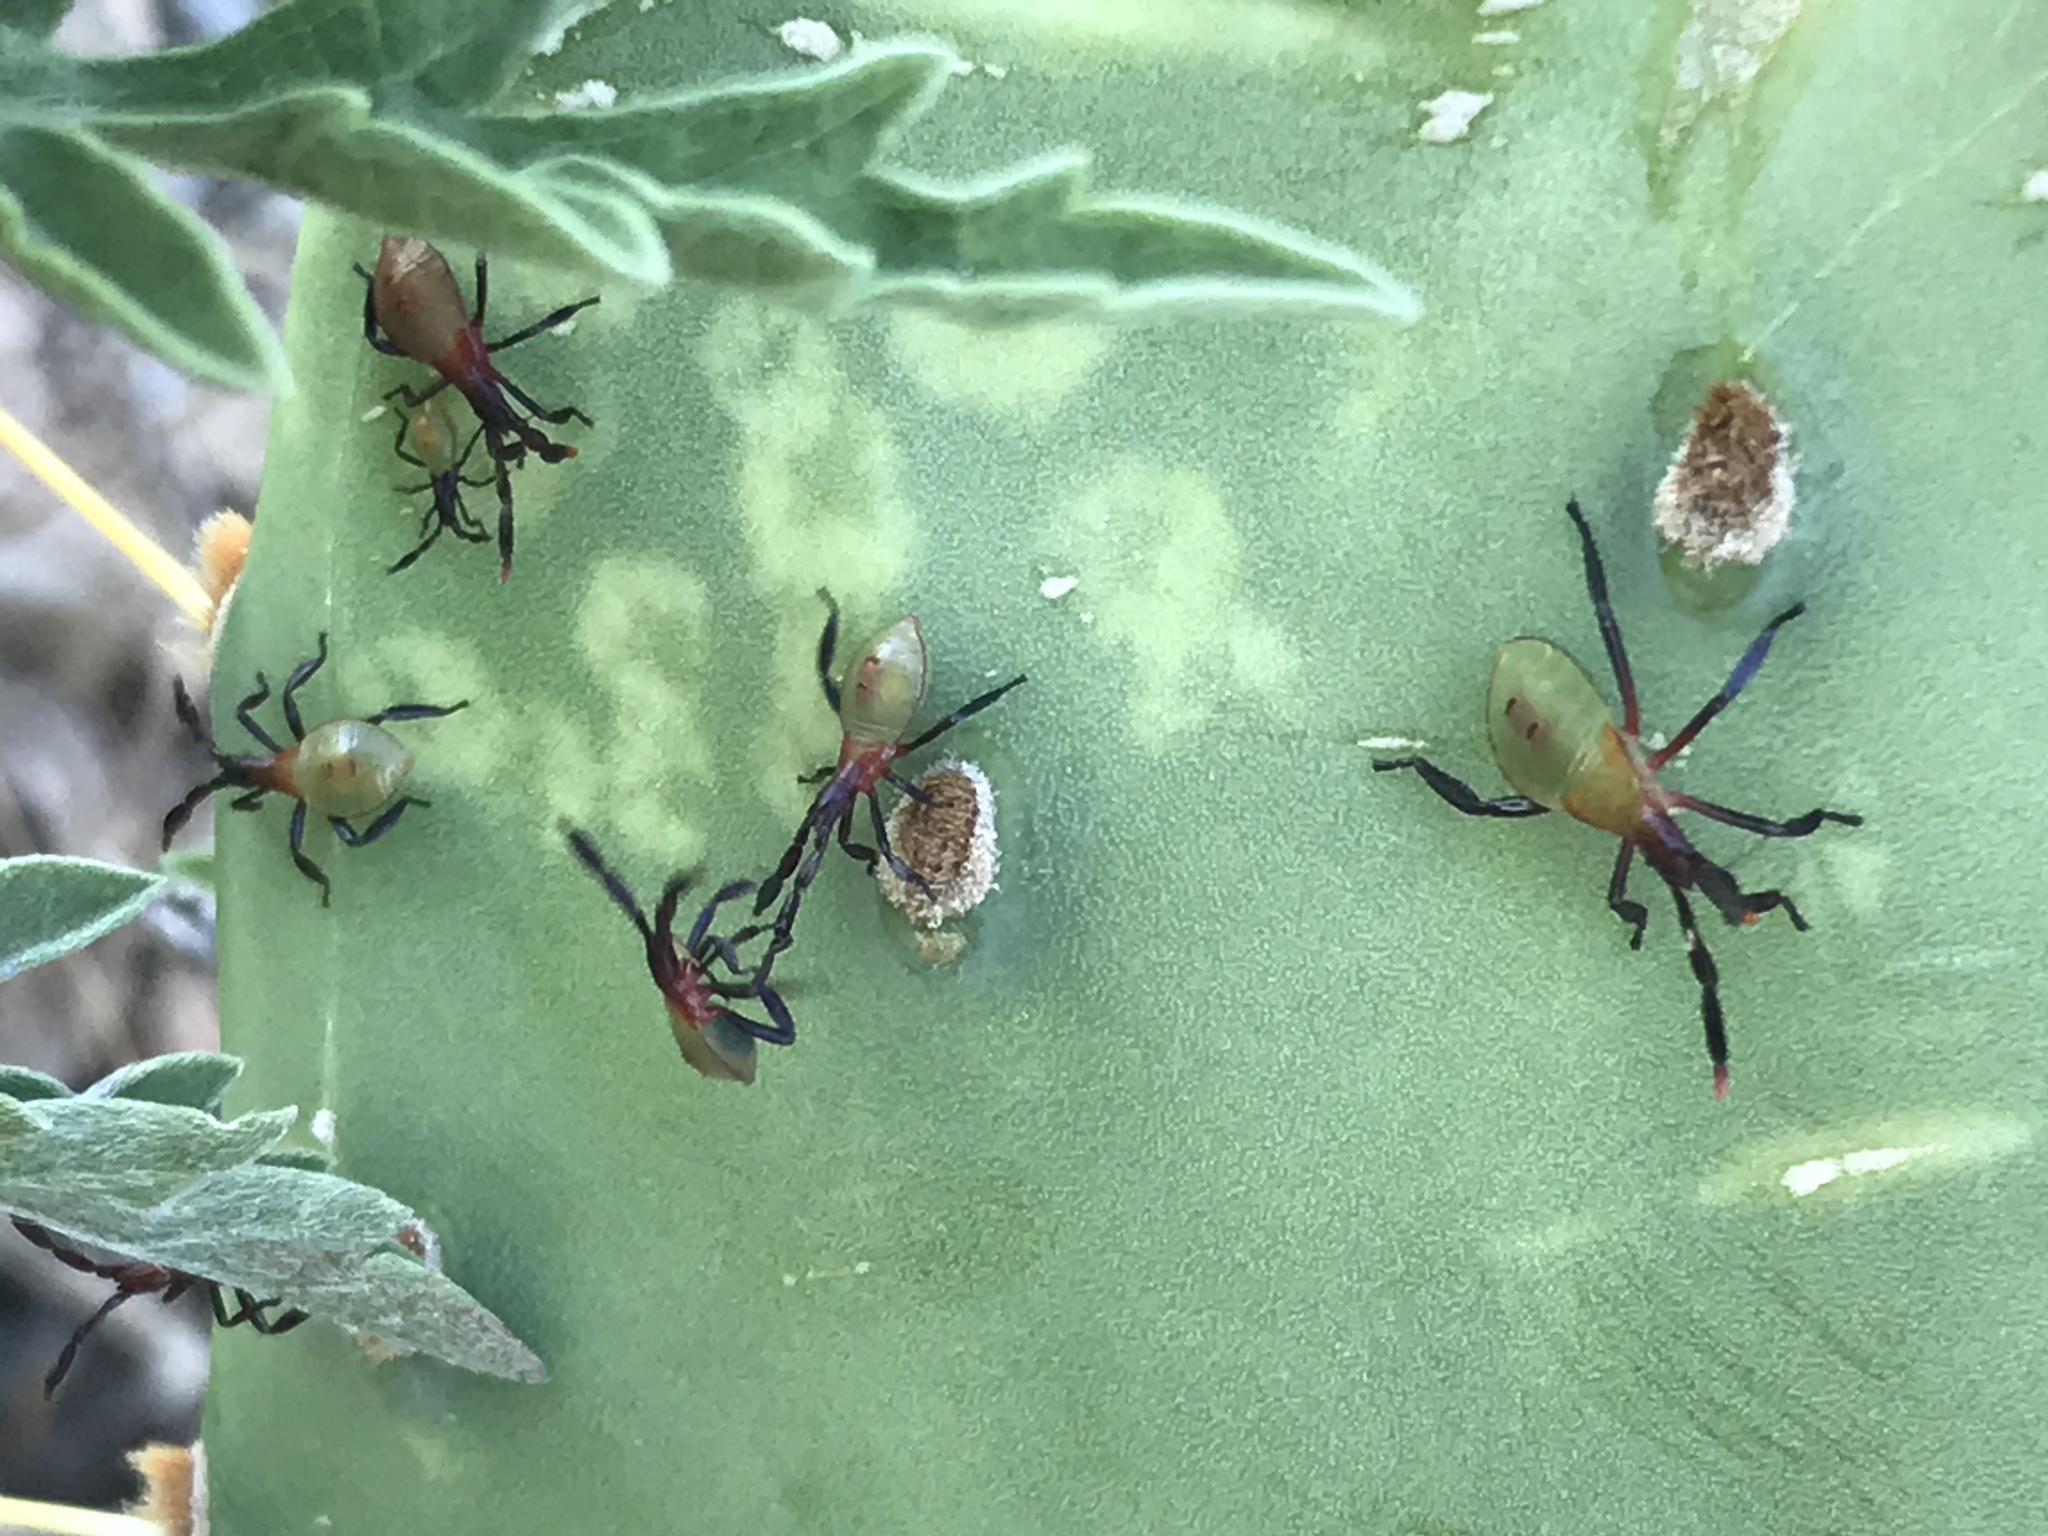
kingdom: Animalia
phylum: Arthropoda
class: Insecta
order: Hemiptera
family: Coreidae
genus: Chelinidea
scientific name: Chelinidea vittiger
